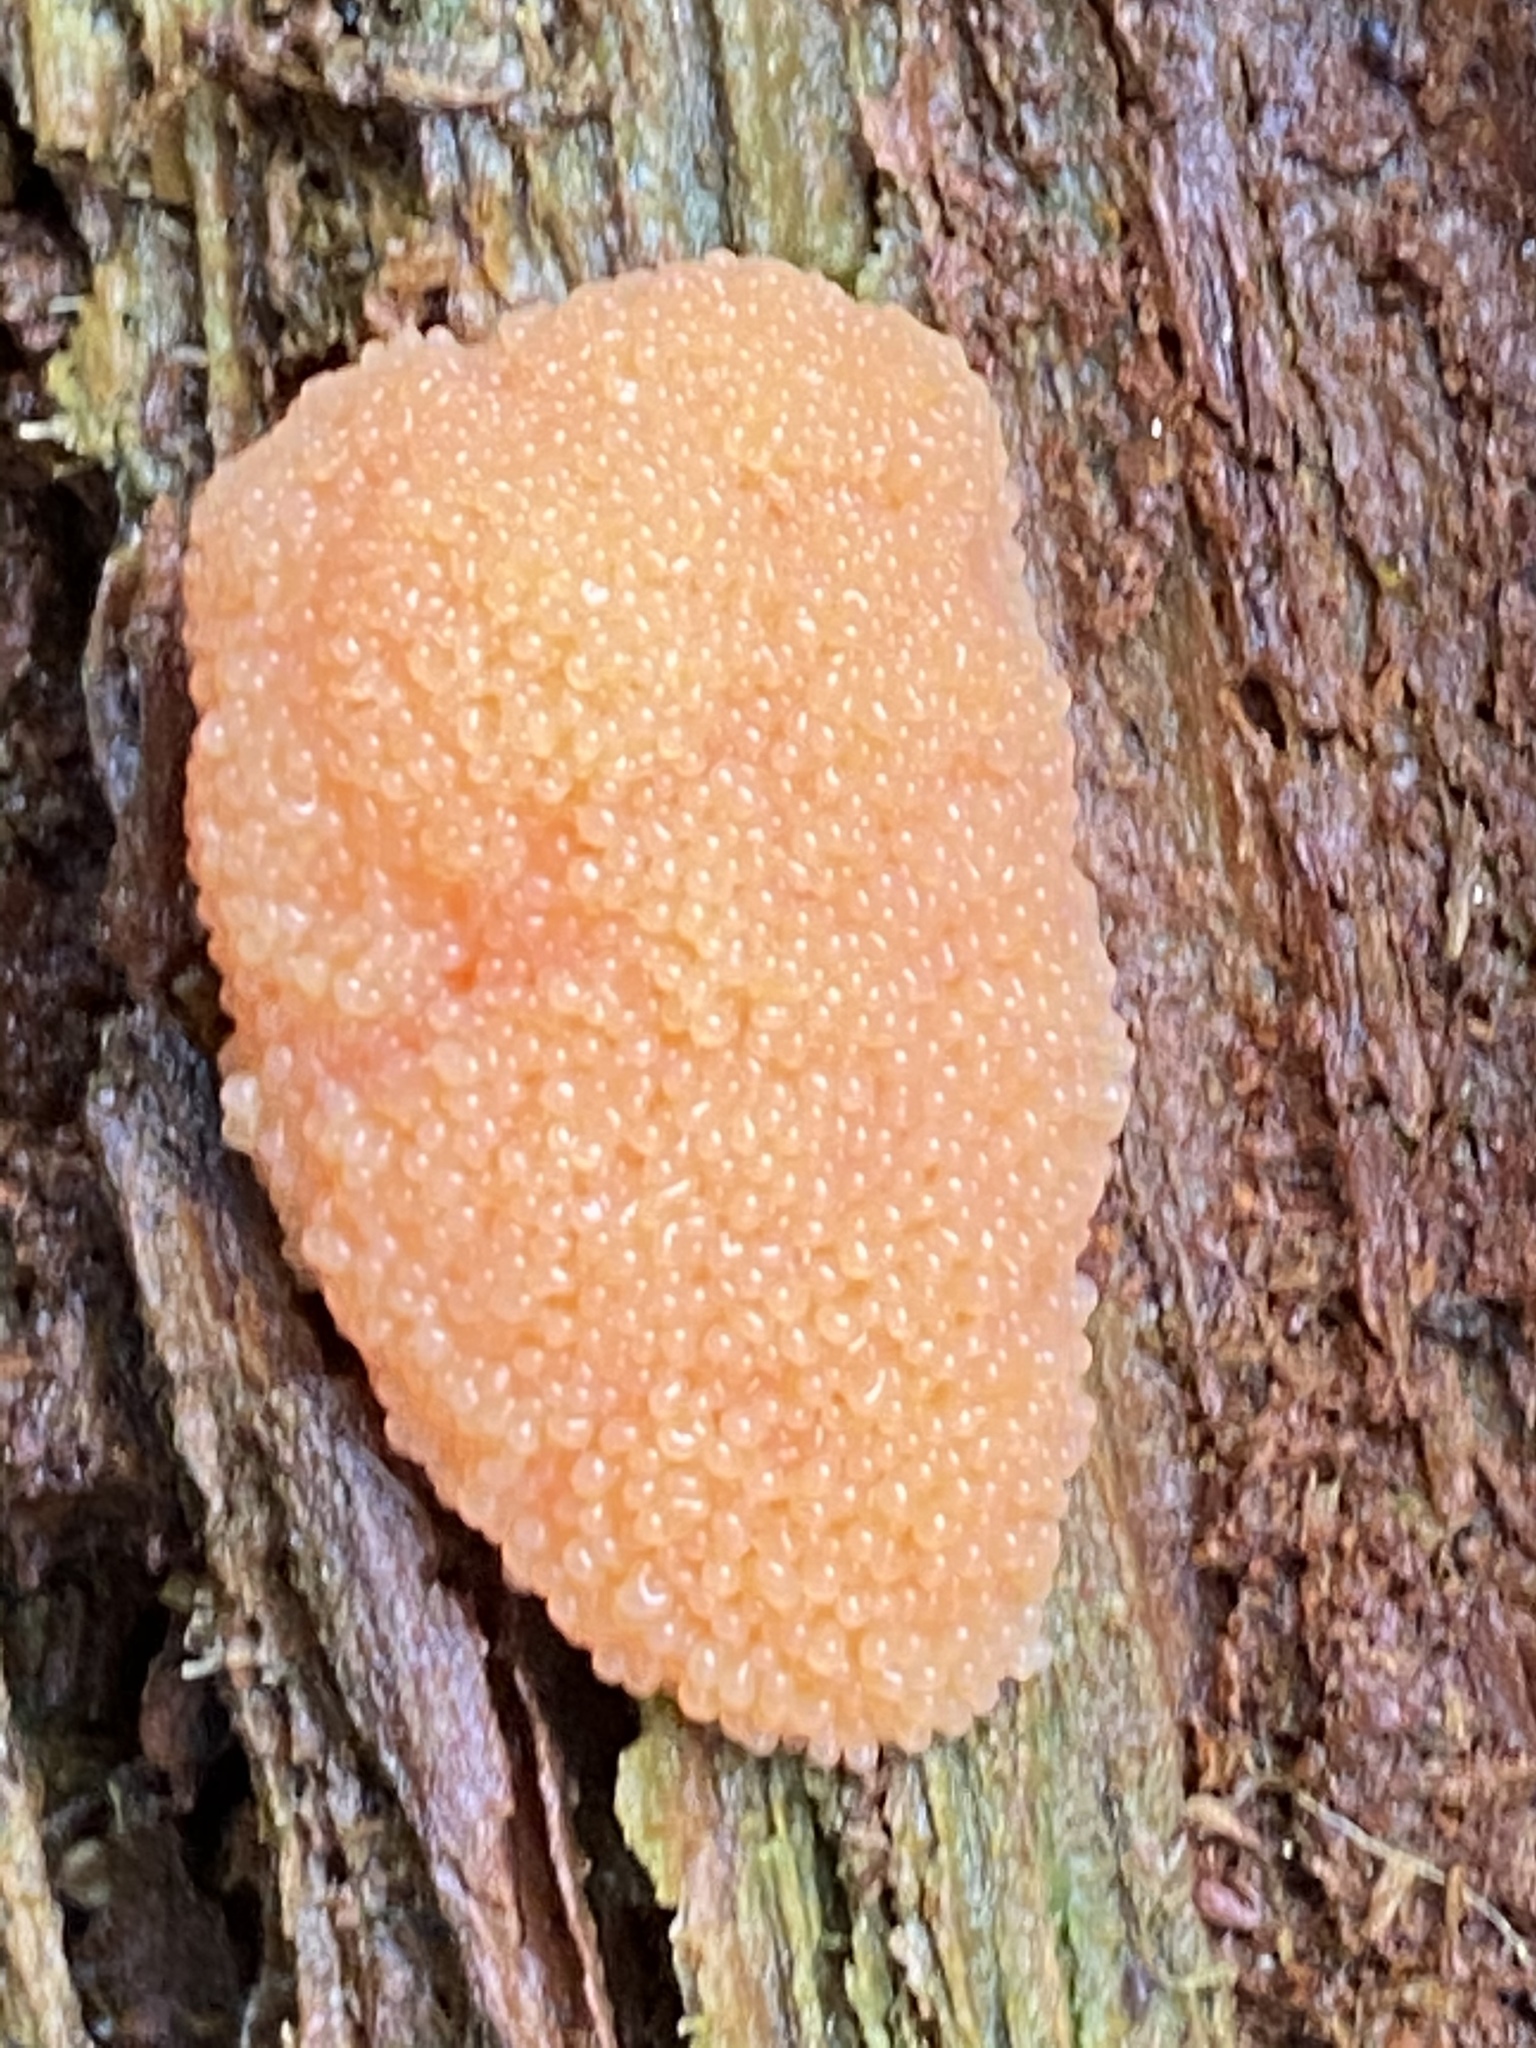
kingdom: Protozoa
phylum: Mycetozoa
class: Myxomycetes
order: Cribrariales
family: Tubiferaceae
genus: Tubifera
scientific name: Tubifera ferruginosa
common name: Red raspberry slime mold
